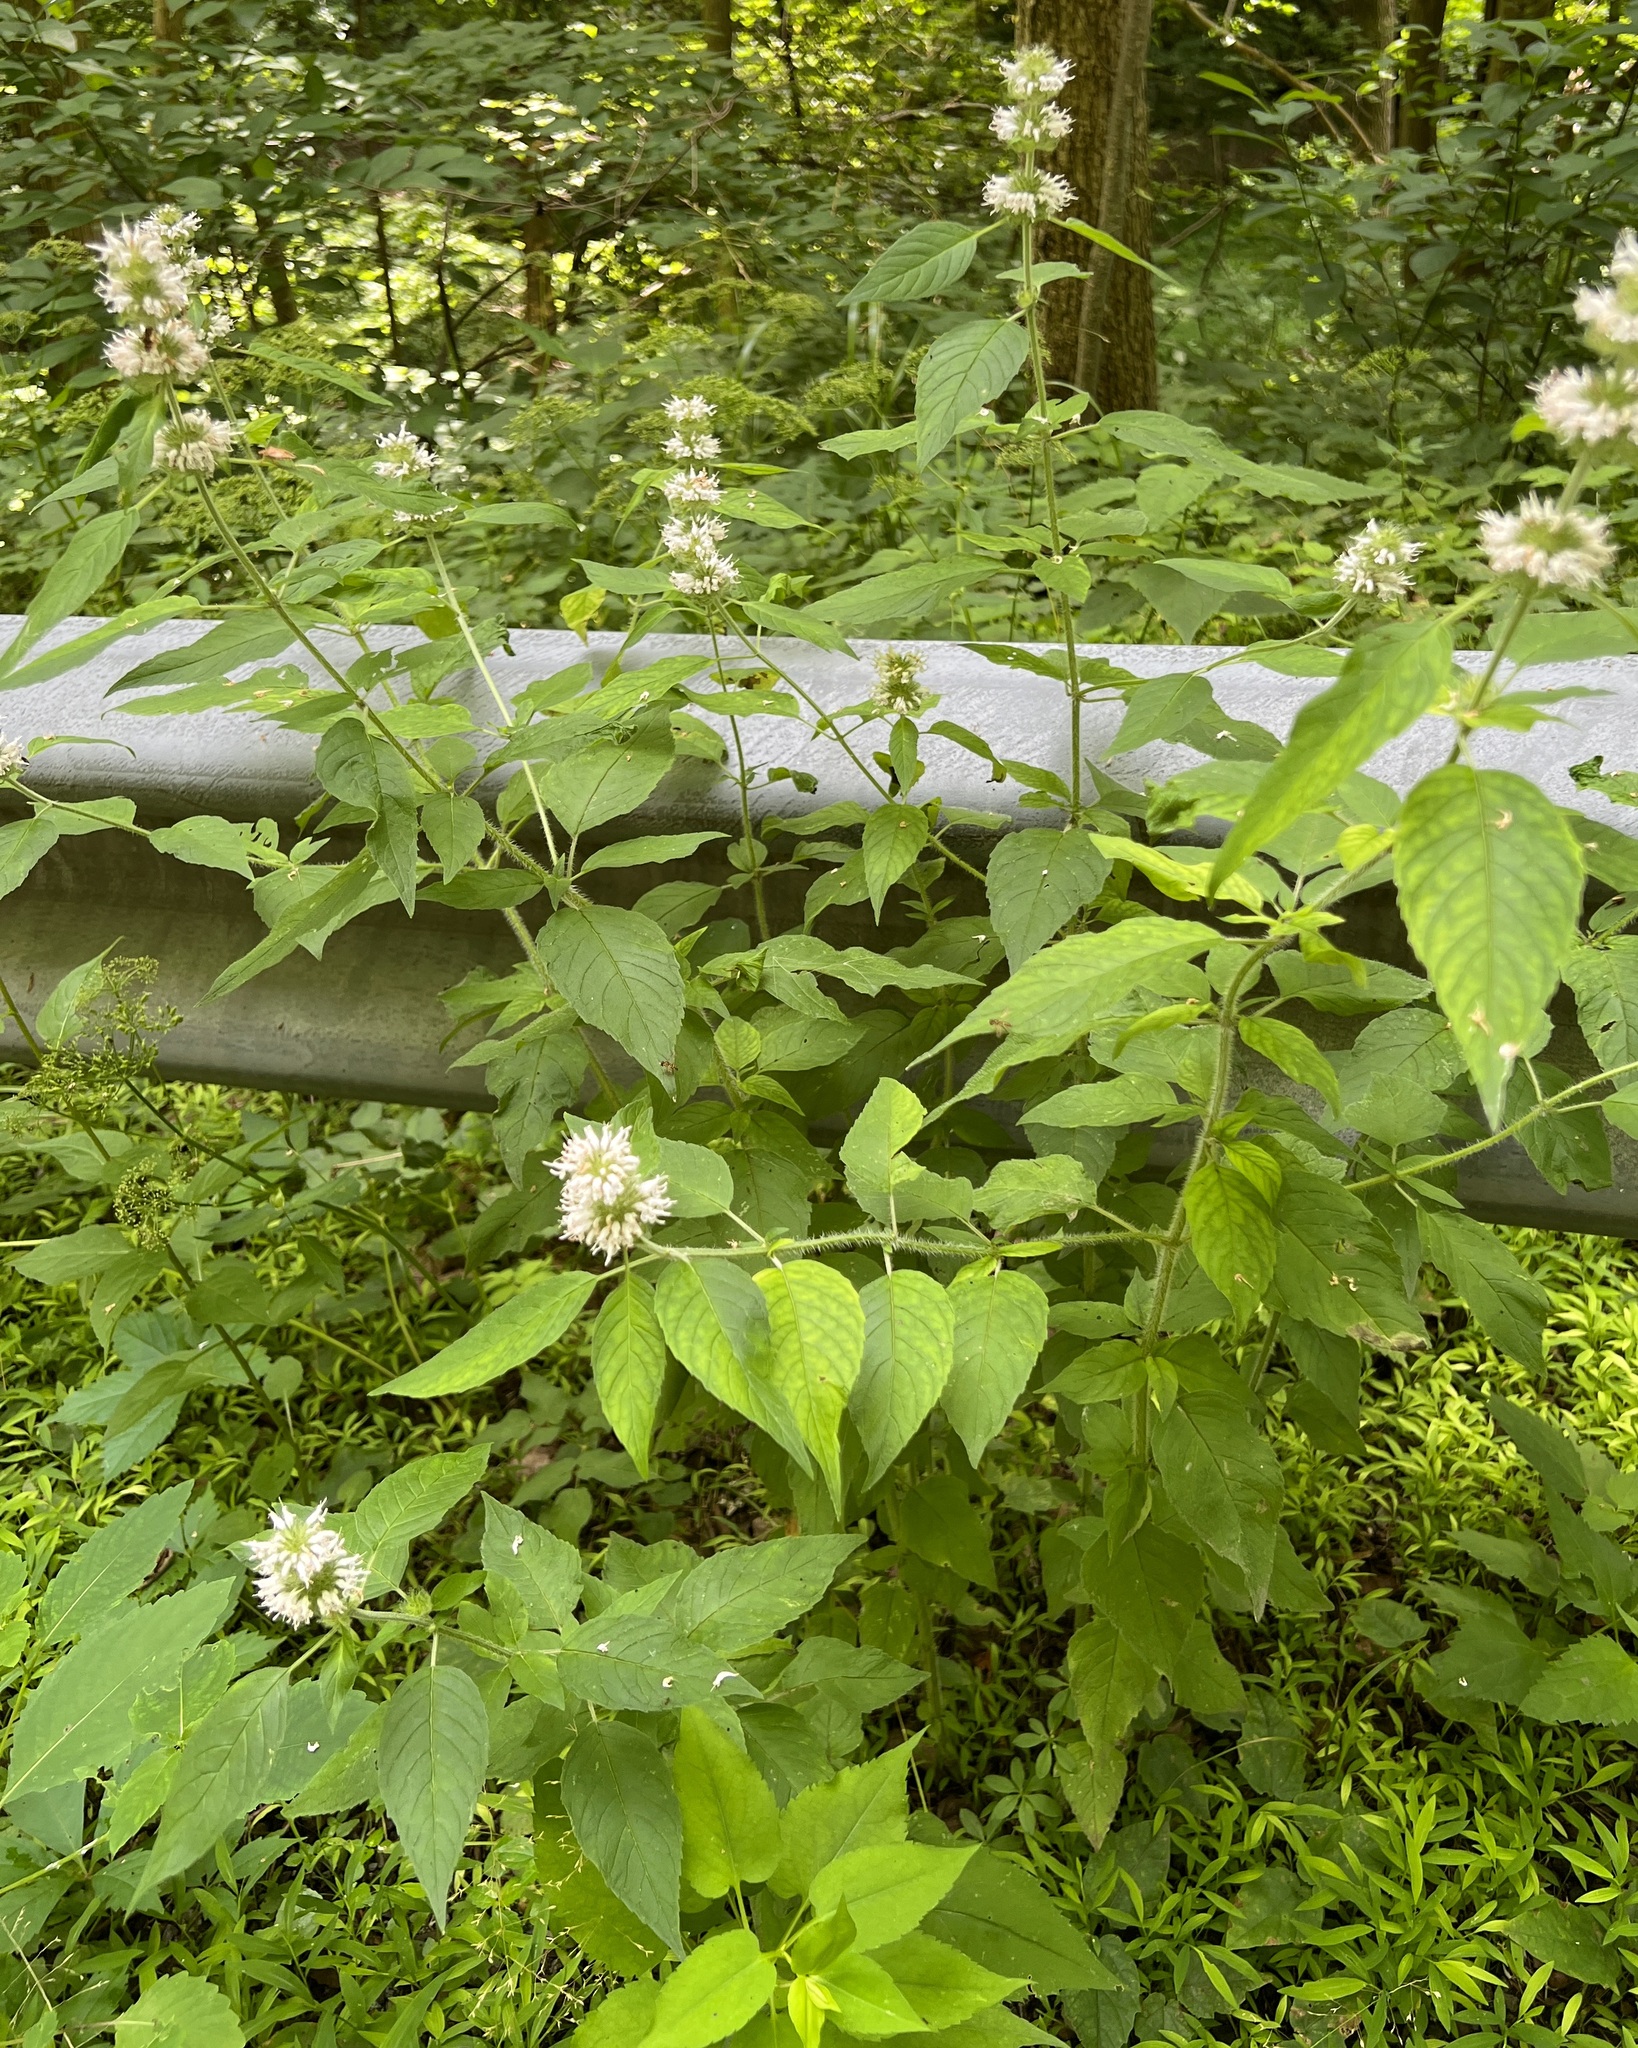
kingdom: Plantae
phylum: Tracheophyta
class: Magnoliopsida
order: Lamiales
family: Lamiaceae
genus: Blephilia
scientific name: Blephilia hirsuta
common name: Hairy blephilia
